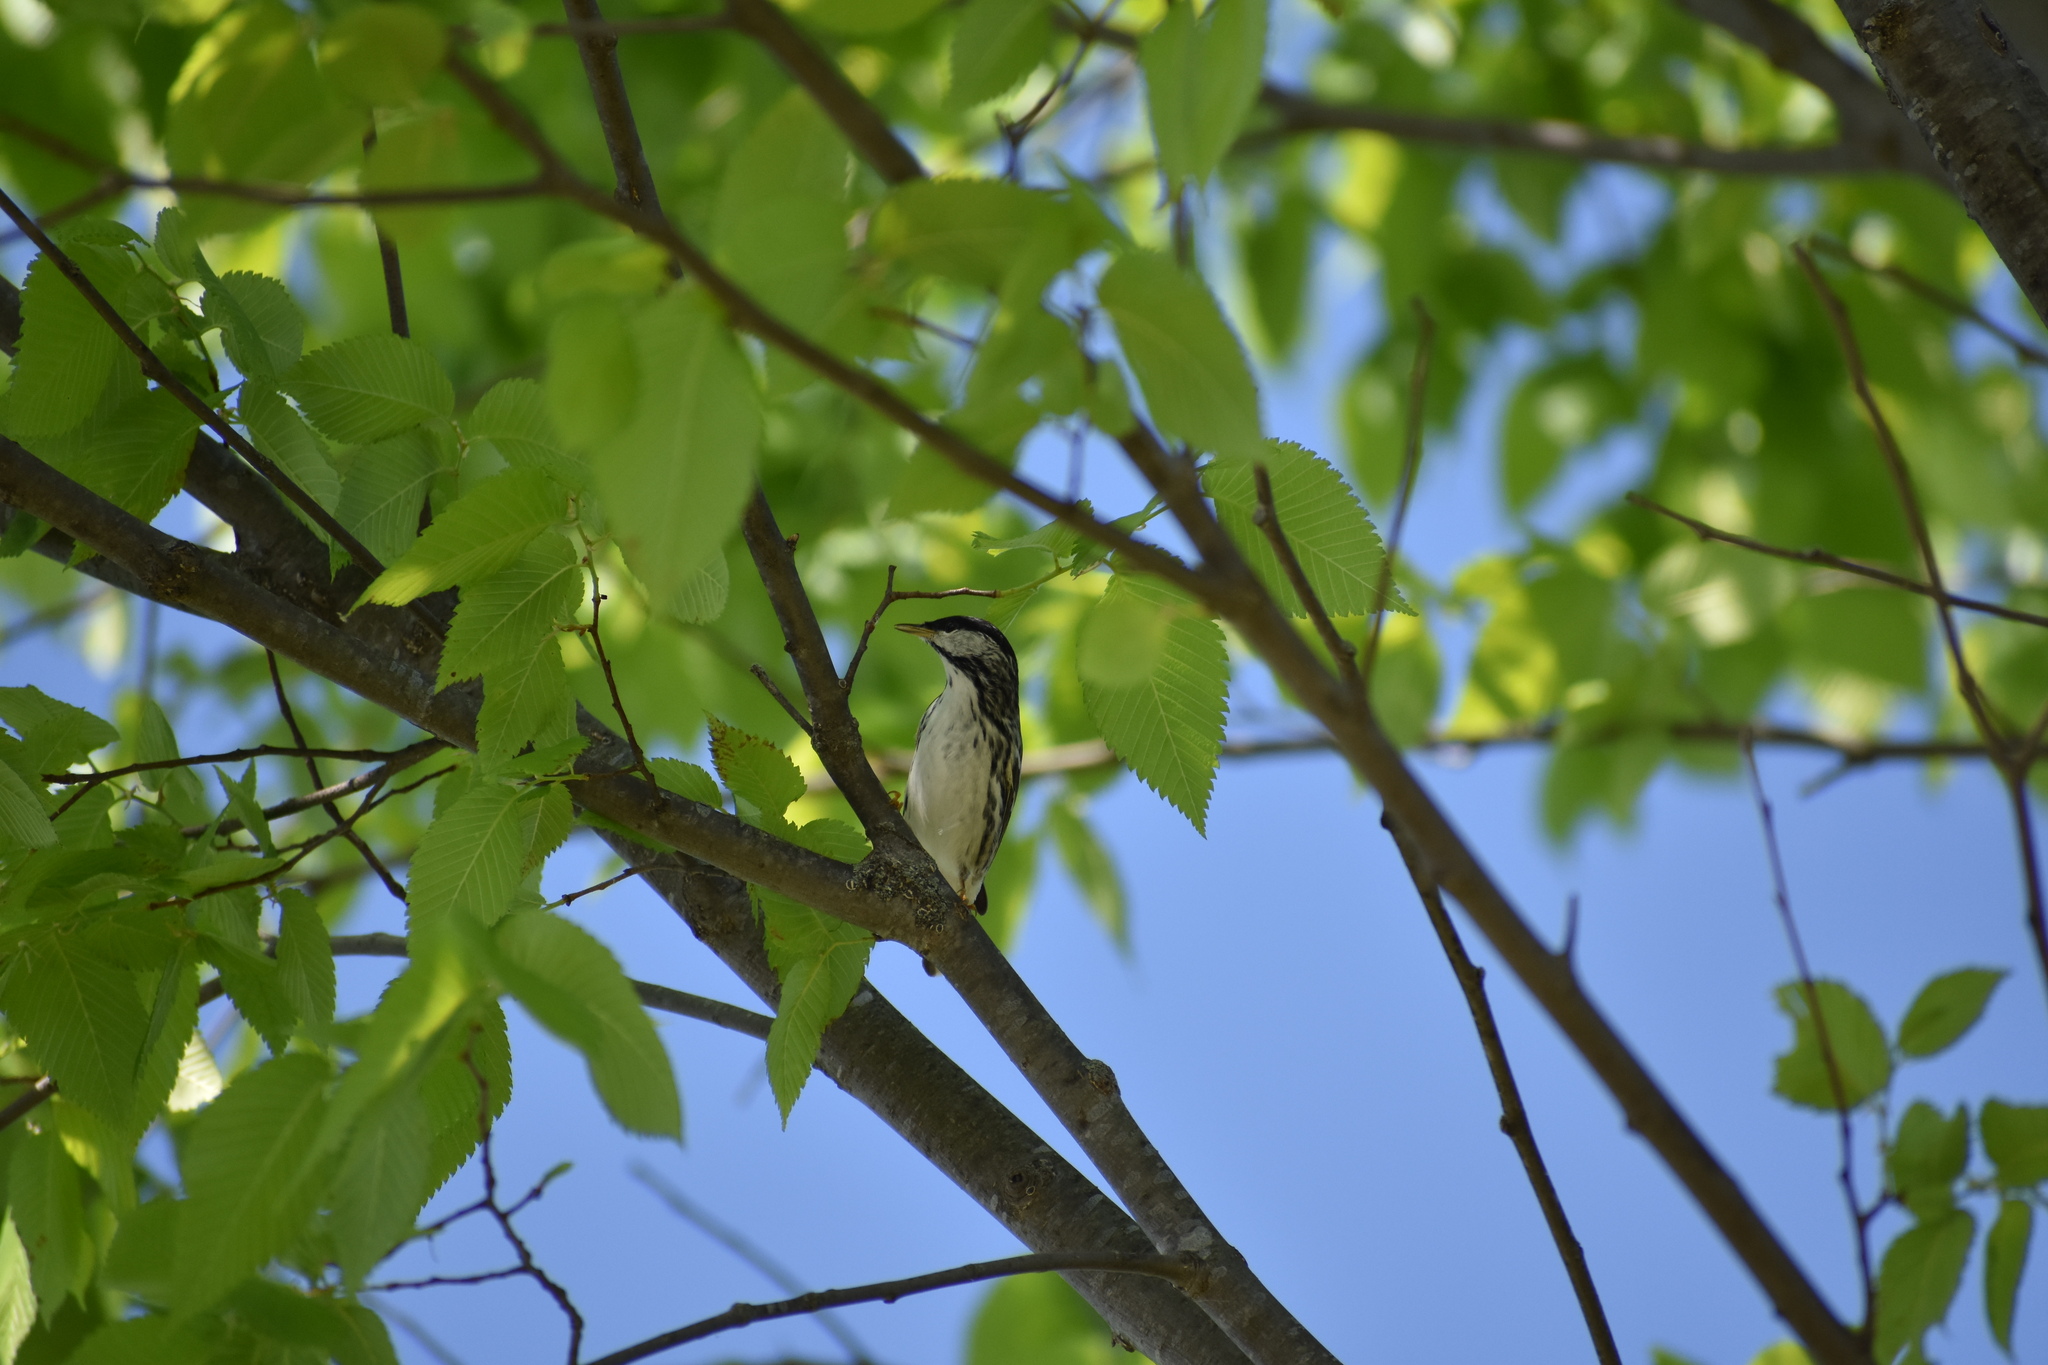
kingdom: Animalia
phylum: Chordata
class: Aves
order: Passeriformes
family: Parulidae
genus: Setophaga
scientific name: Setophaga striata
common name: Blackpoll warbler
